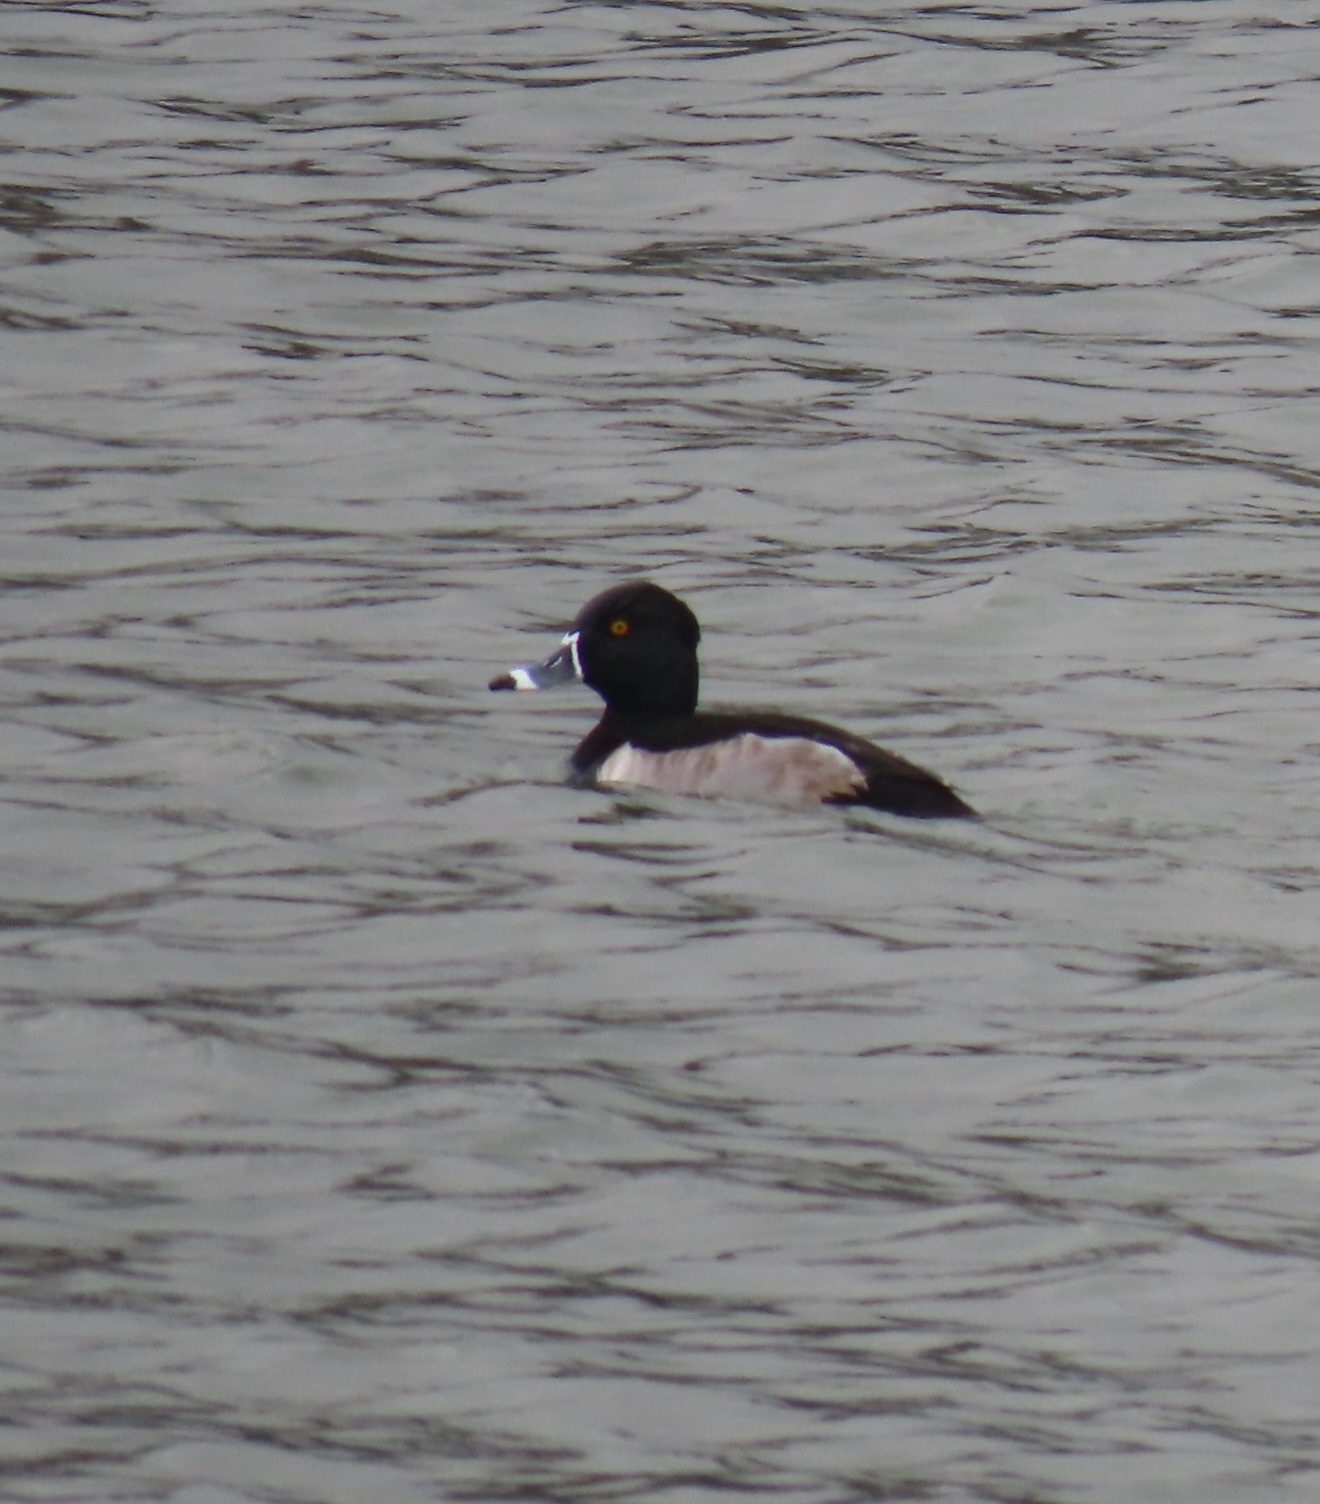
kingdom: Animalia
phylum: Chordata
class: Aves
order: Anseriformes
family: Anatidae
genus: Aythya
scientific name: Aythya collaris
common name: Ring-necked duck
